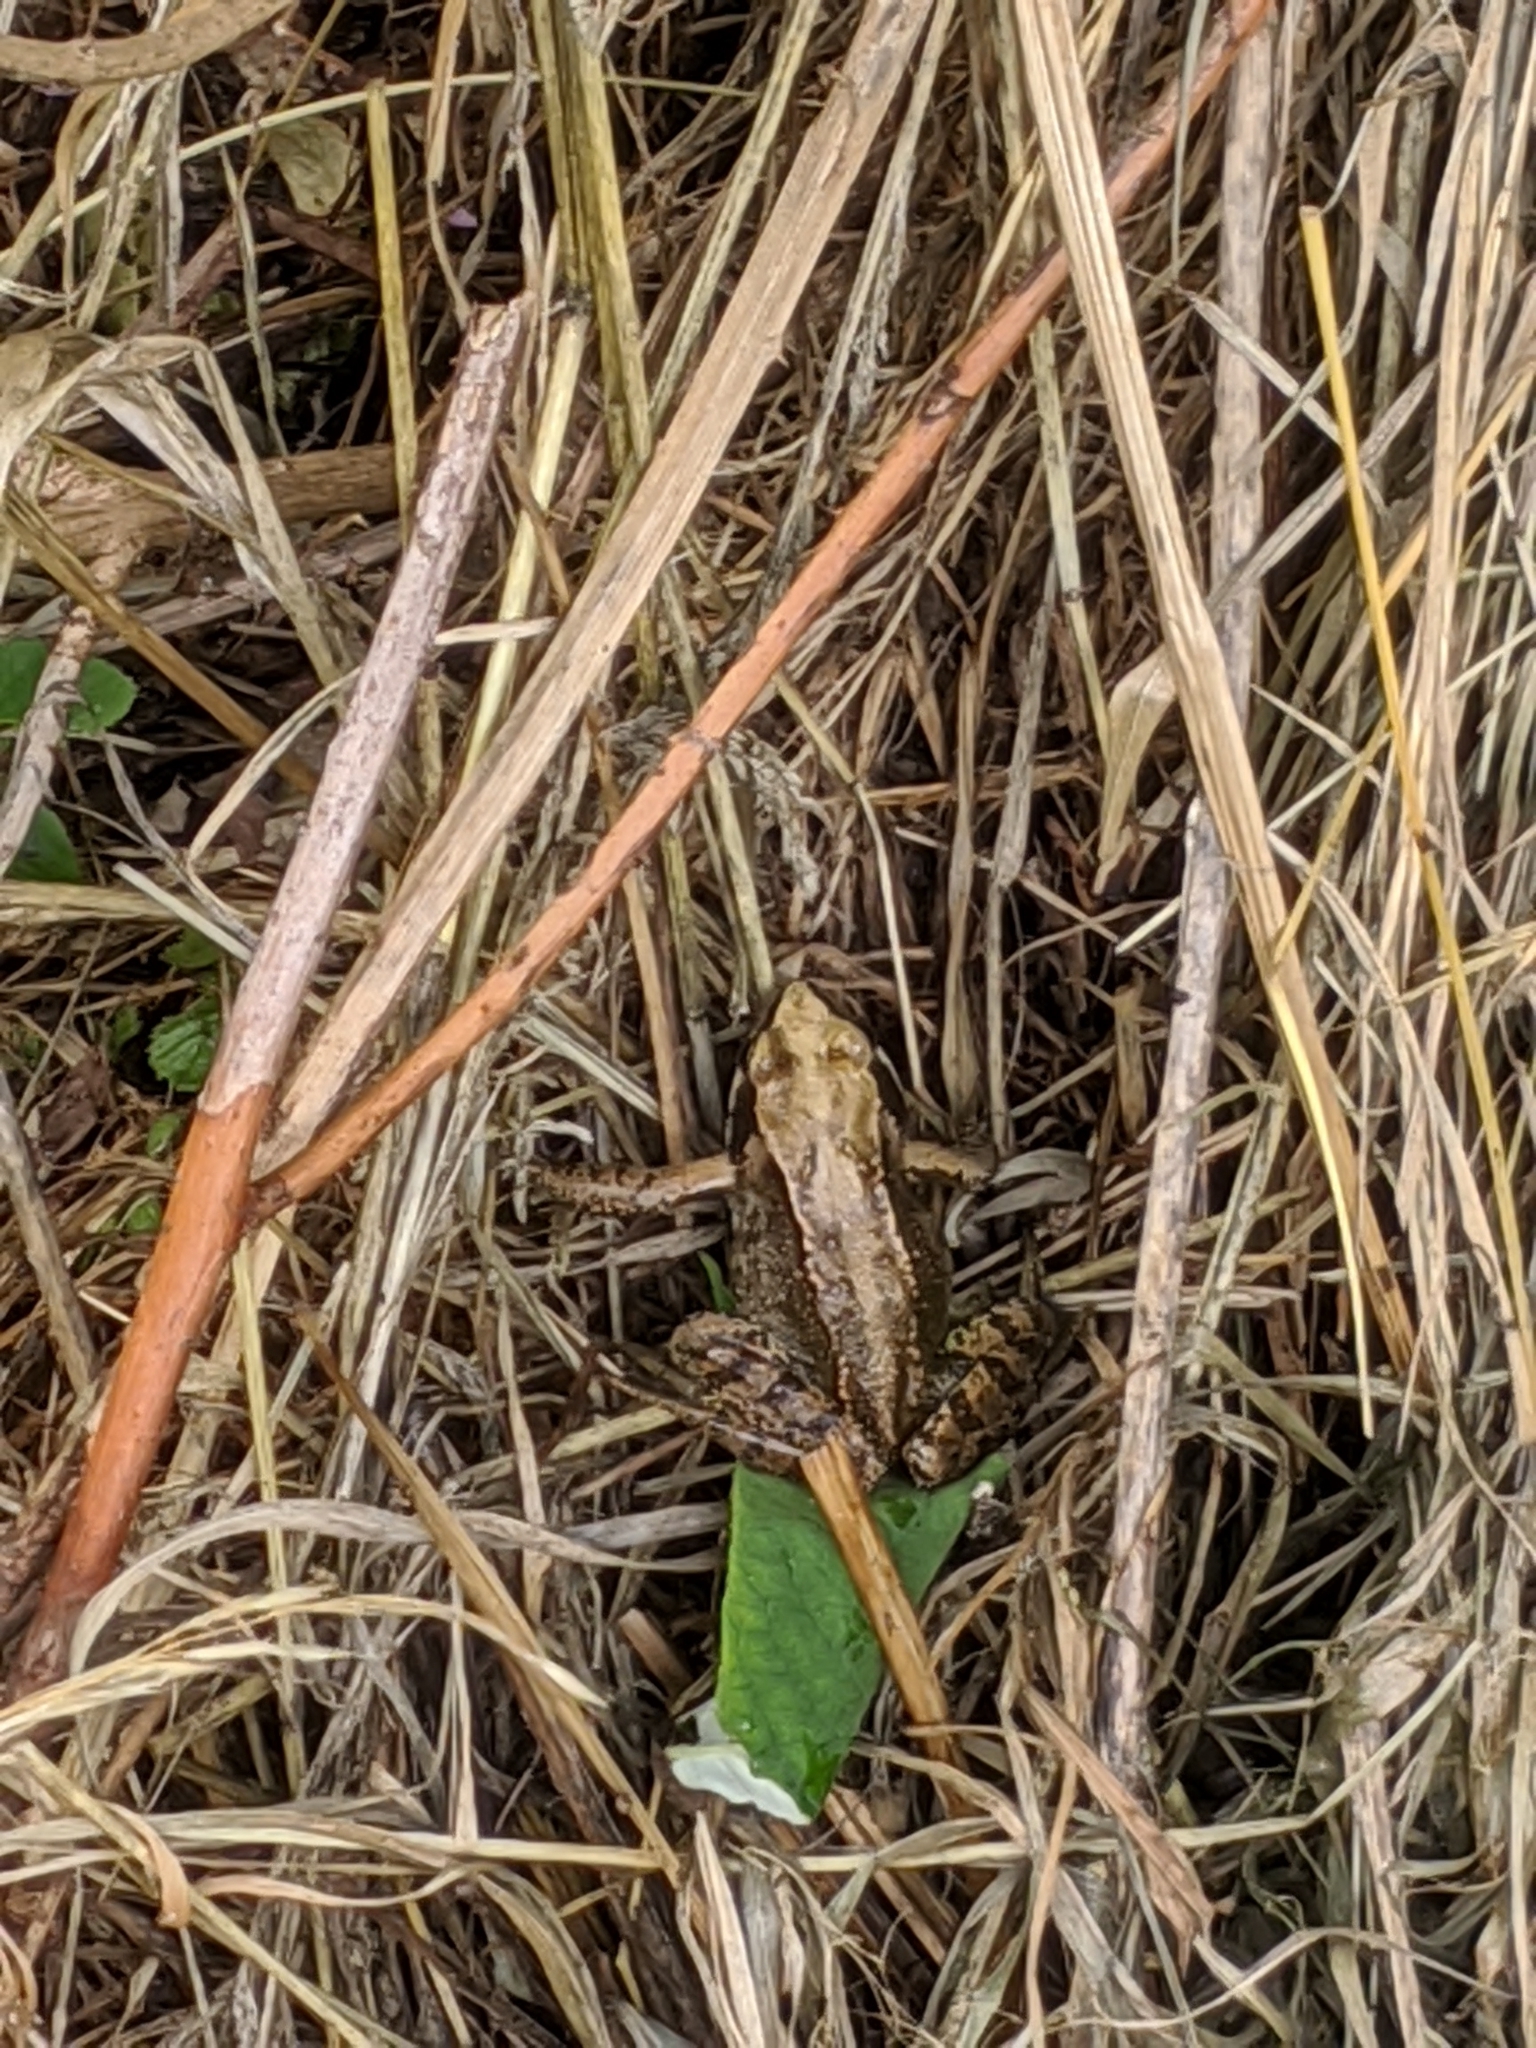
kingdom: Animalia
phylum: Chordata
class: Amphibia
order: Anura
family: Ranidae
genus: Rana
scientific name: Rana temporaria
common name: Common frog
